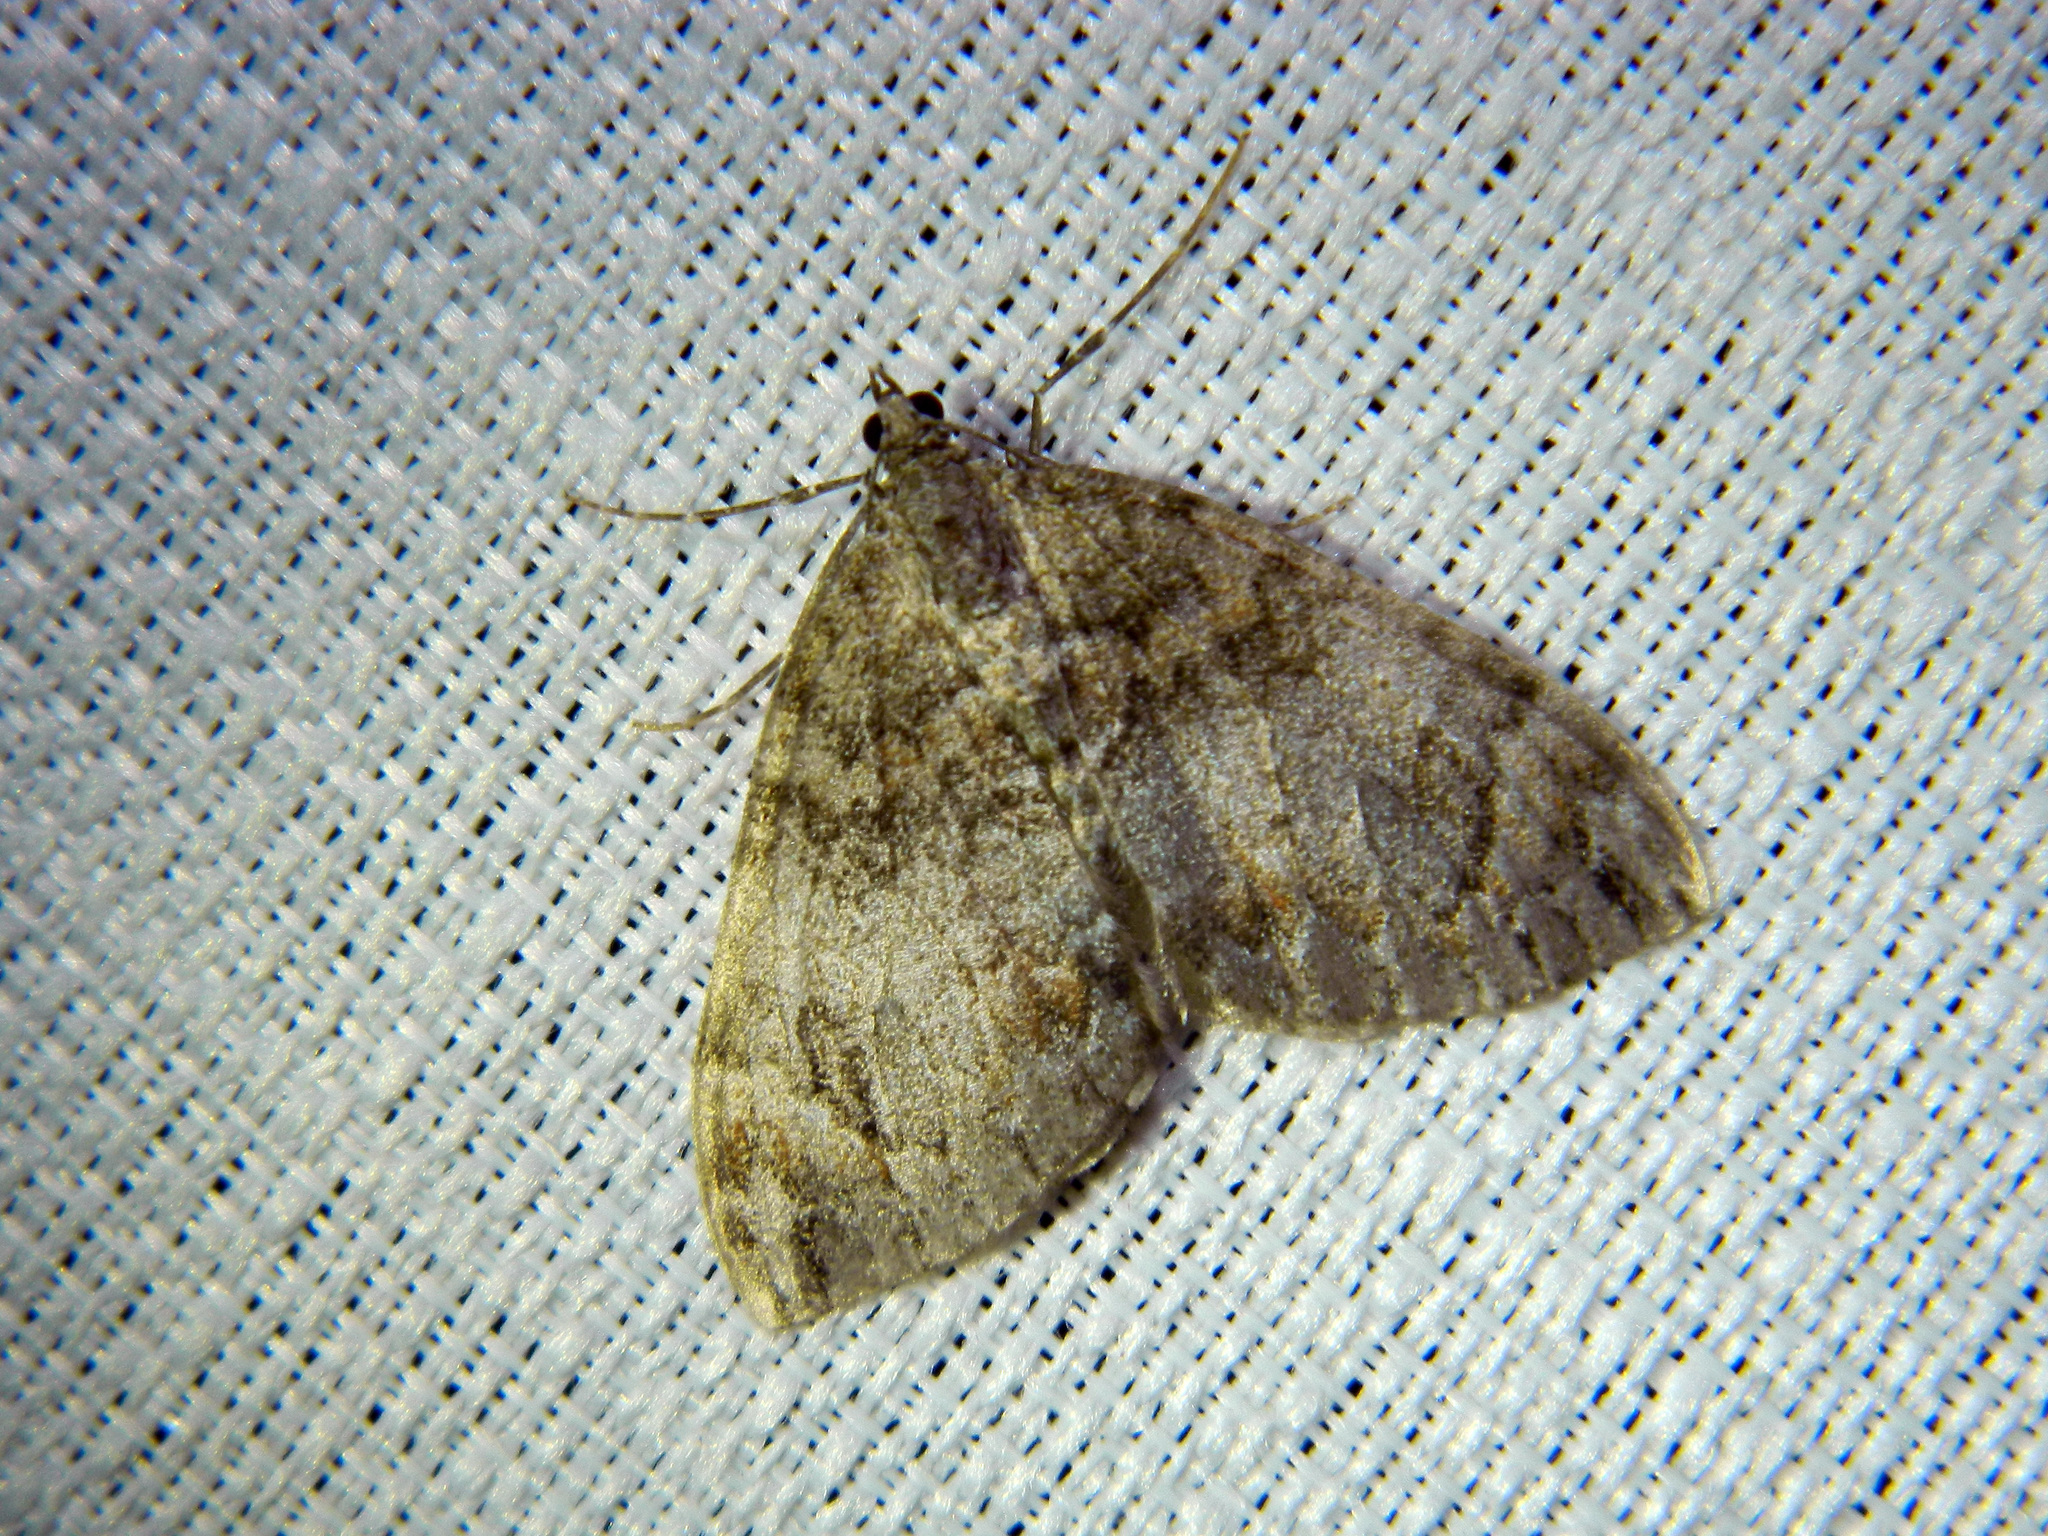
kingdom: Animalia
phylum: Arthropoda
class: Insecta
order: Lepidoptera
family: Geometridae
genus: Dysstroma
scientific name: Dysstroma citrata
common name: Dark marbled carpet
